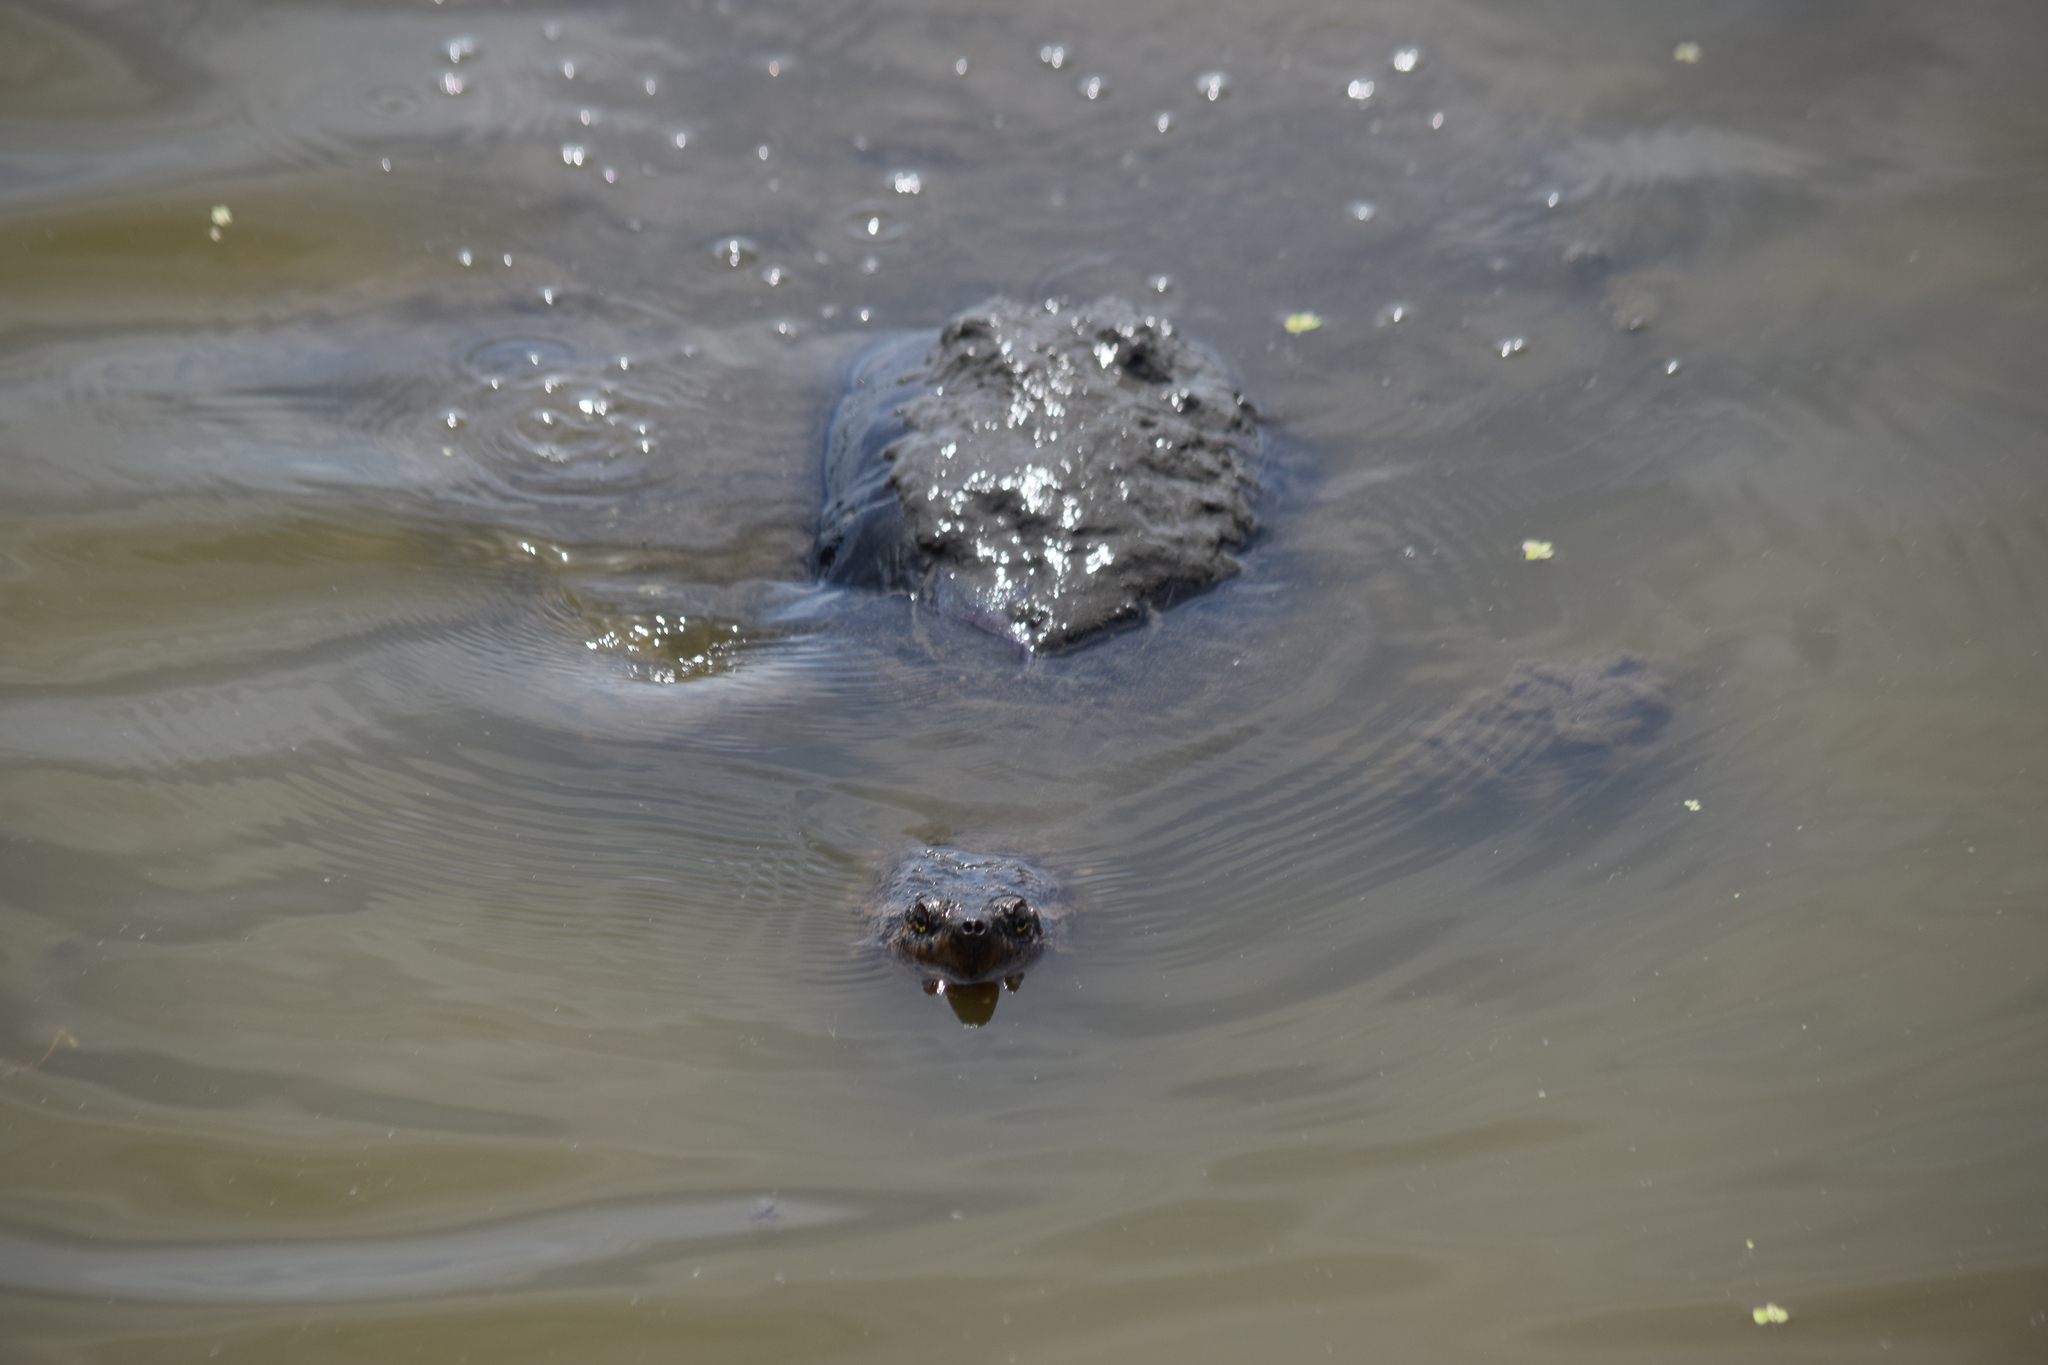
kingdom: Animalia
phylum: Chordata
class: Testudines
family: Chelydridae
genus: Chelydra
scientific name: Chelydra serpentina
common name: Common snapping turtle
